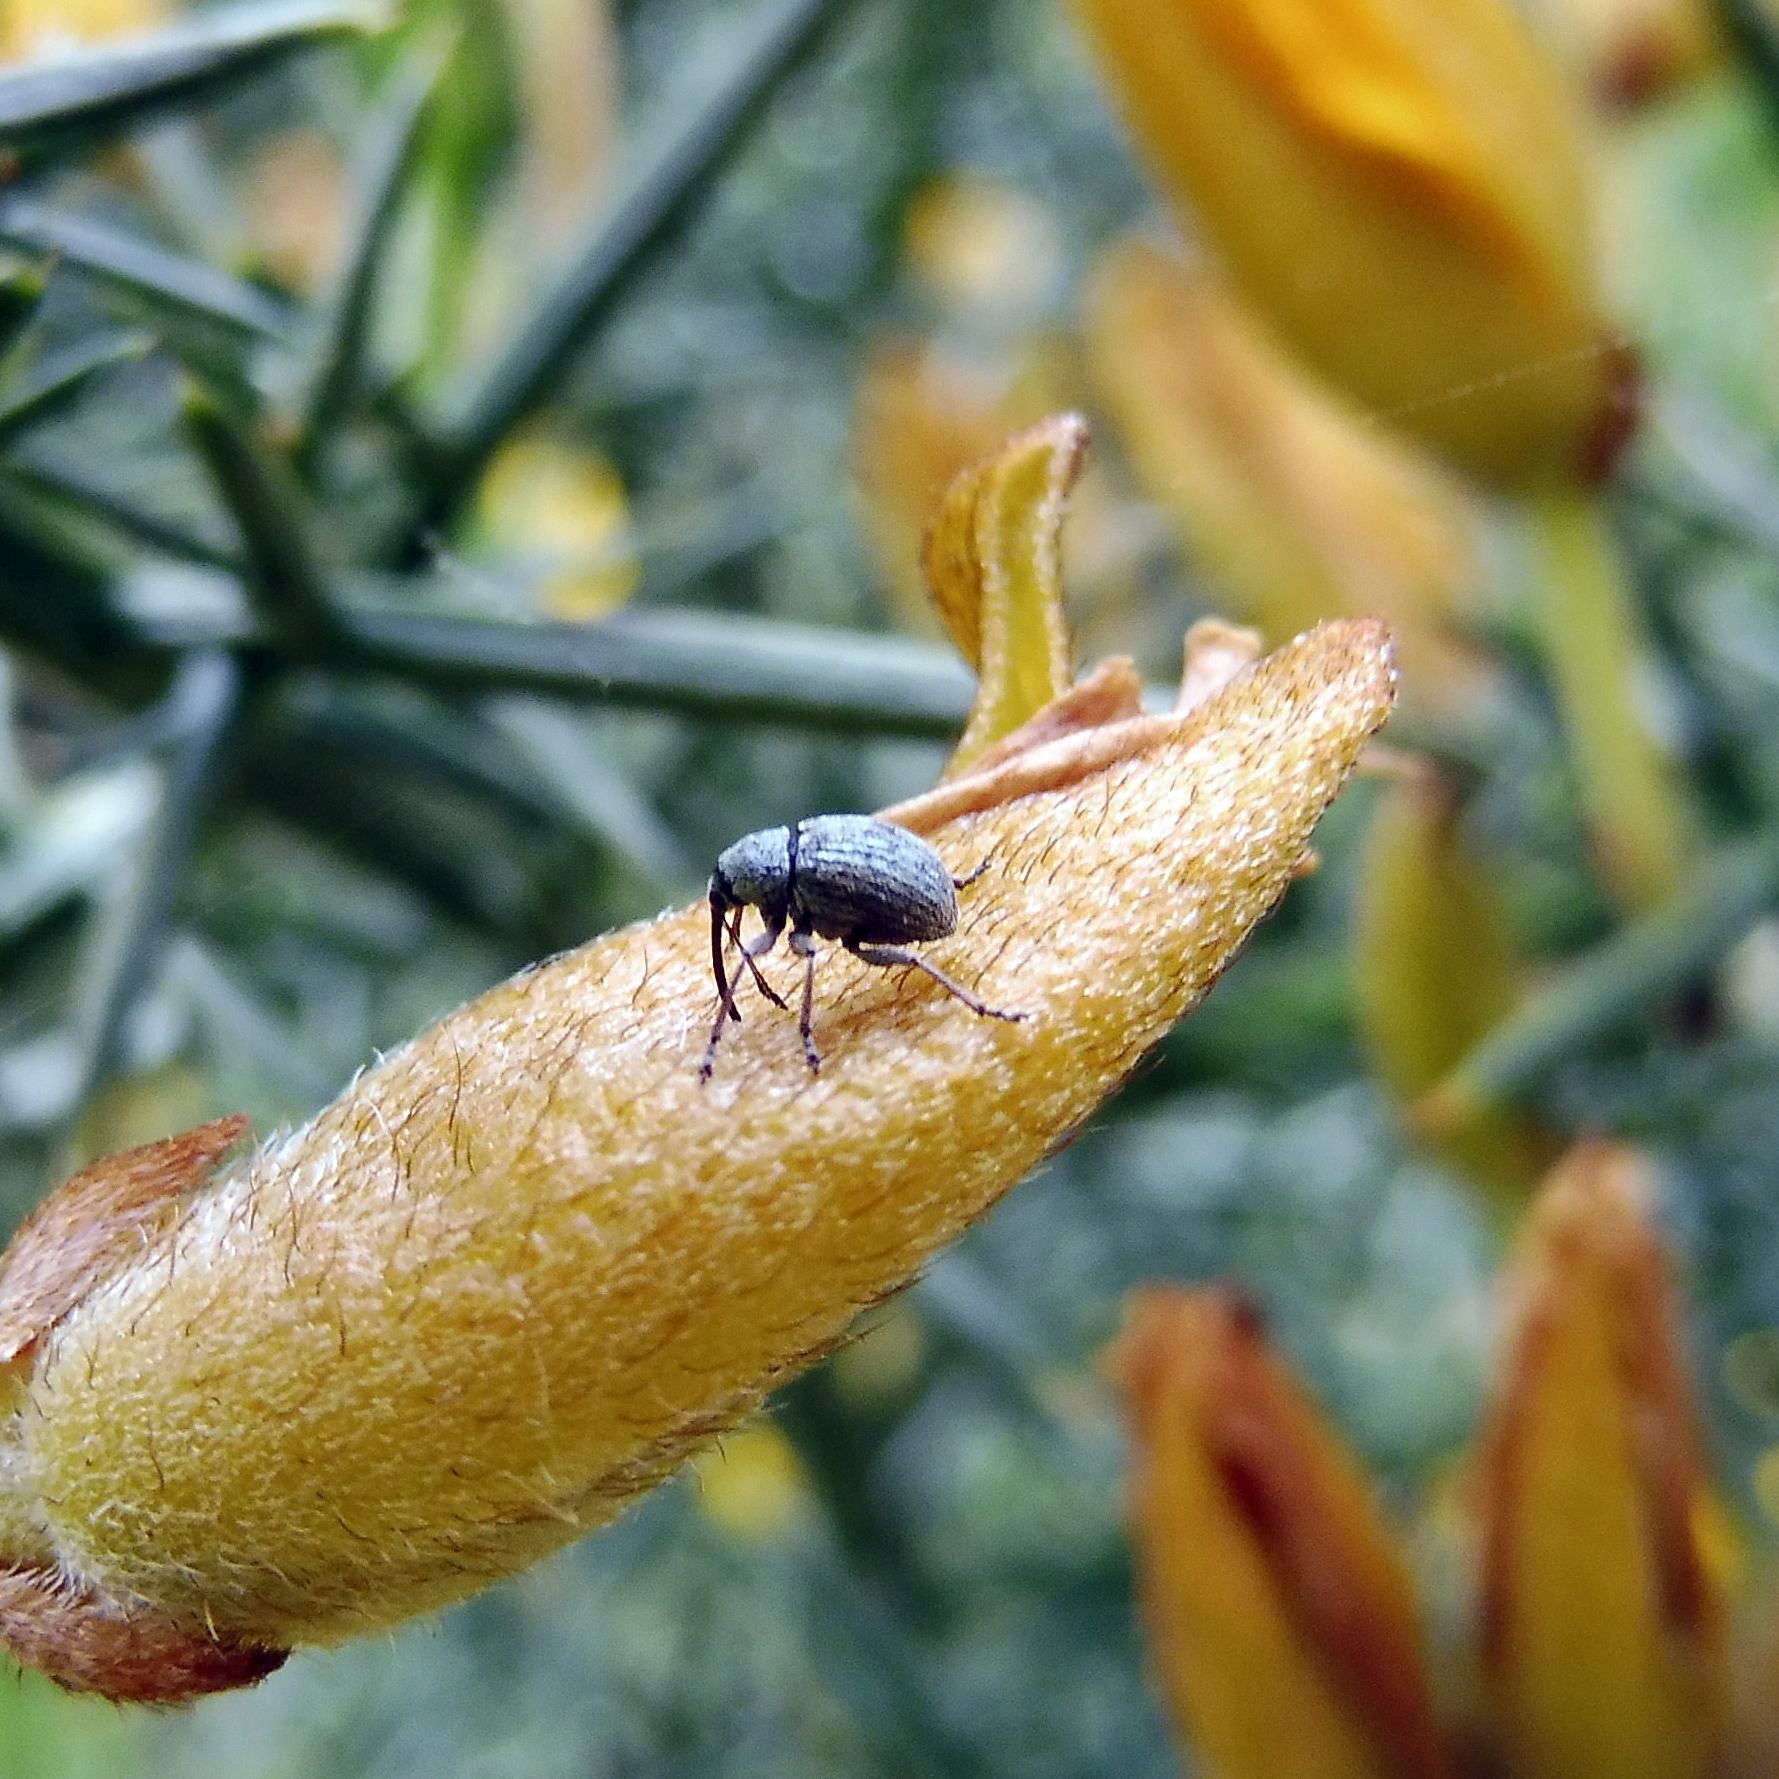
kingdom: Animalia
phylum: Arthropoda
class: Insecta
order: Coleoptera
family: Brentidae
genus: Exapion
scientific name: Exapion ulicis
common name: Gorse seed weevil
